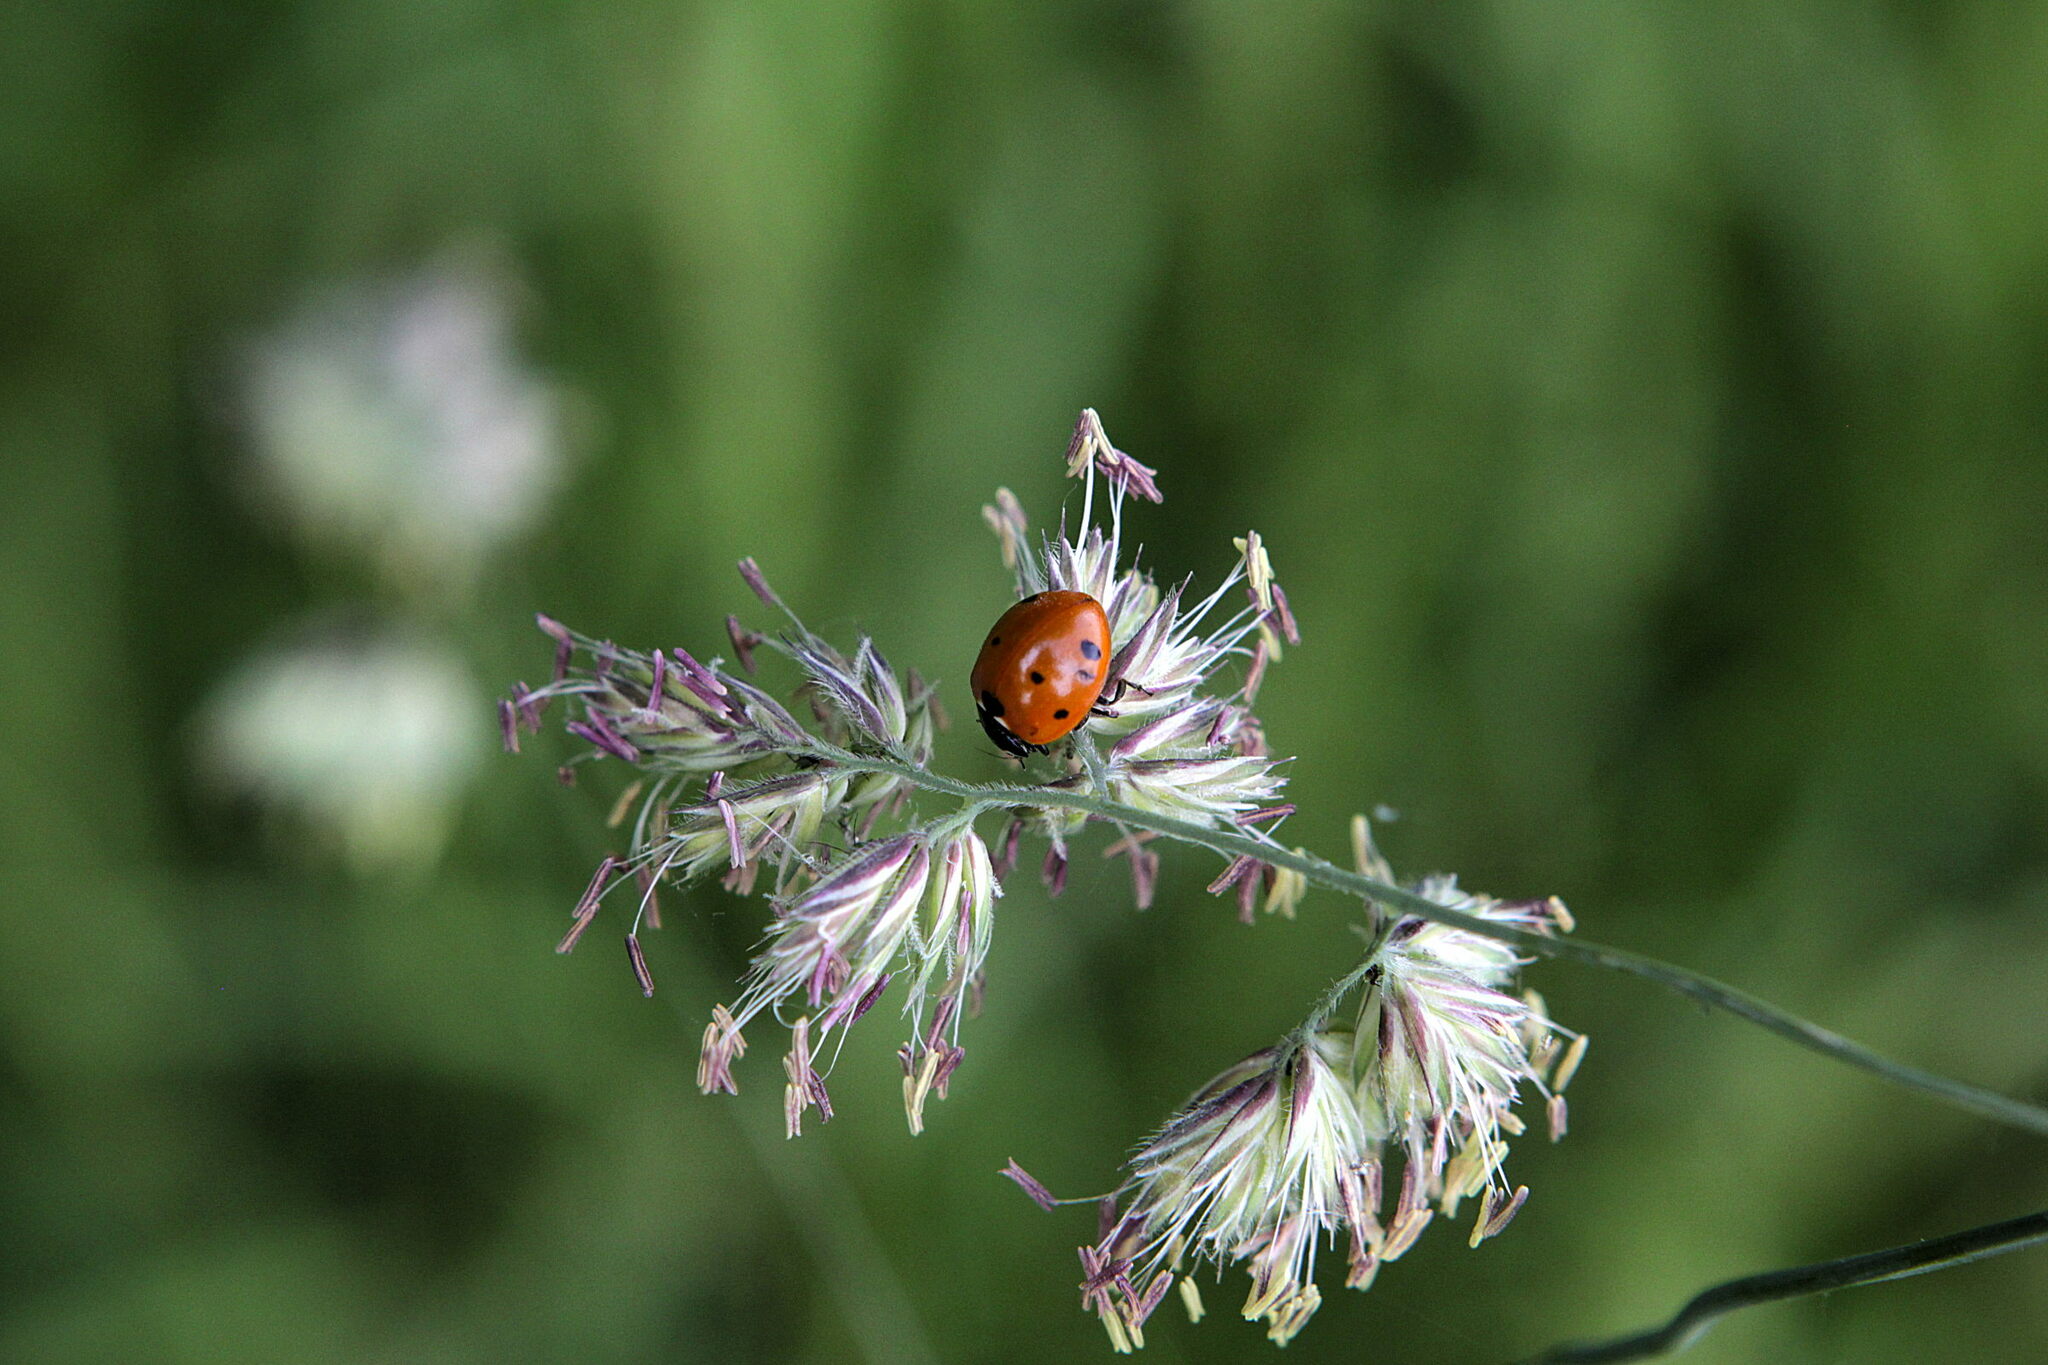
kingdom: Animalia
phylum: Arthropoda
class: Insecta
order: Coleoptera
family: Coccinellidae
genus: Coccinella
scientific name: Coccinella septempunctata
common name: Sevenspotted lady beetle
